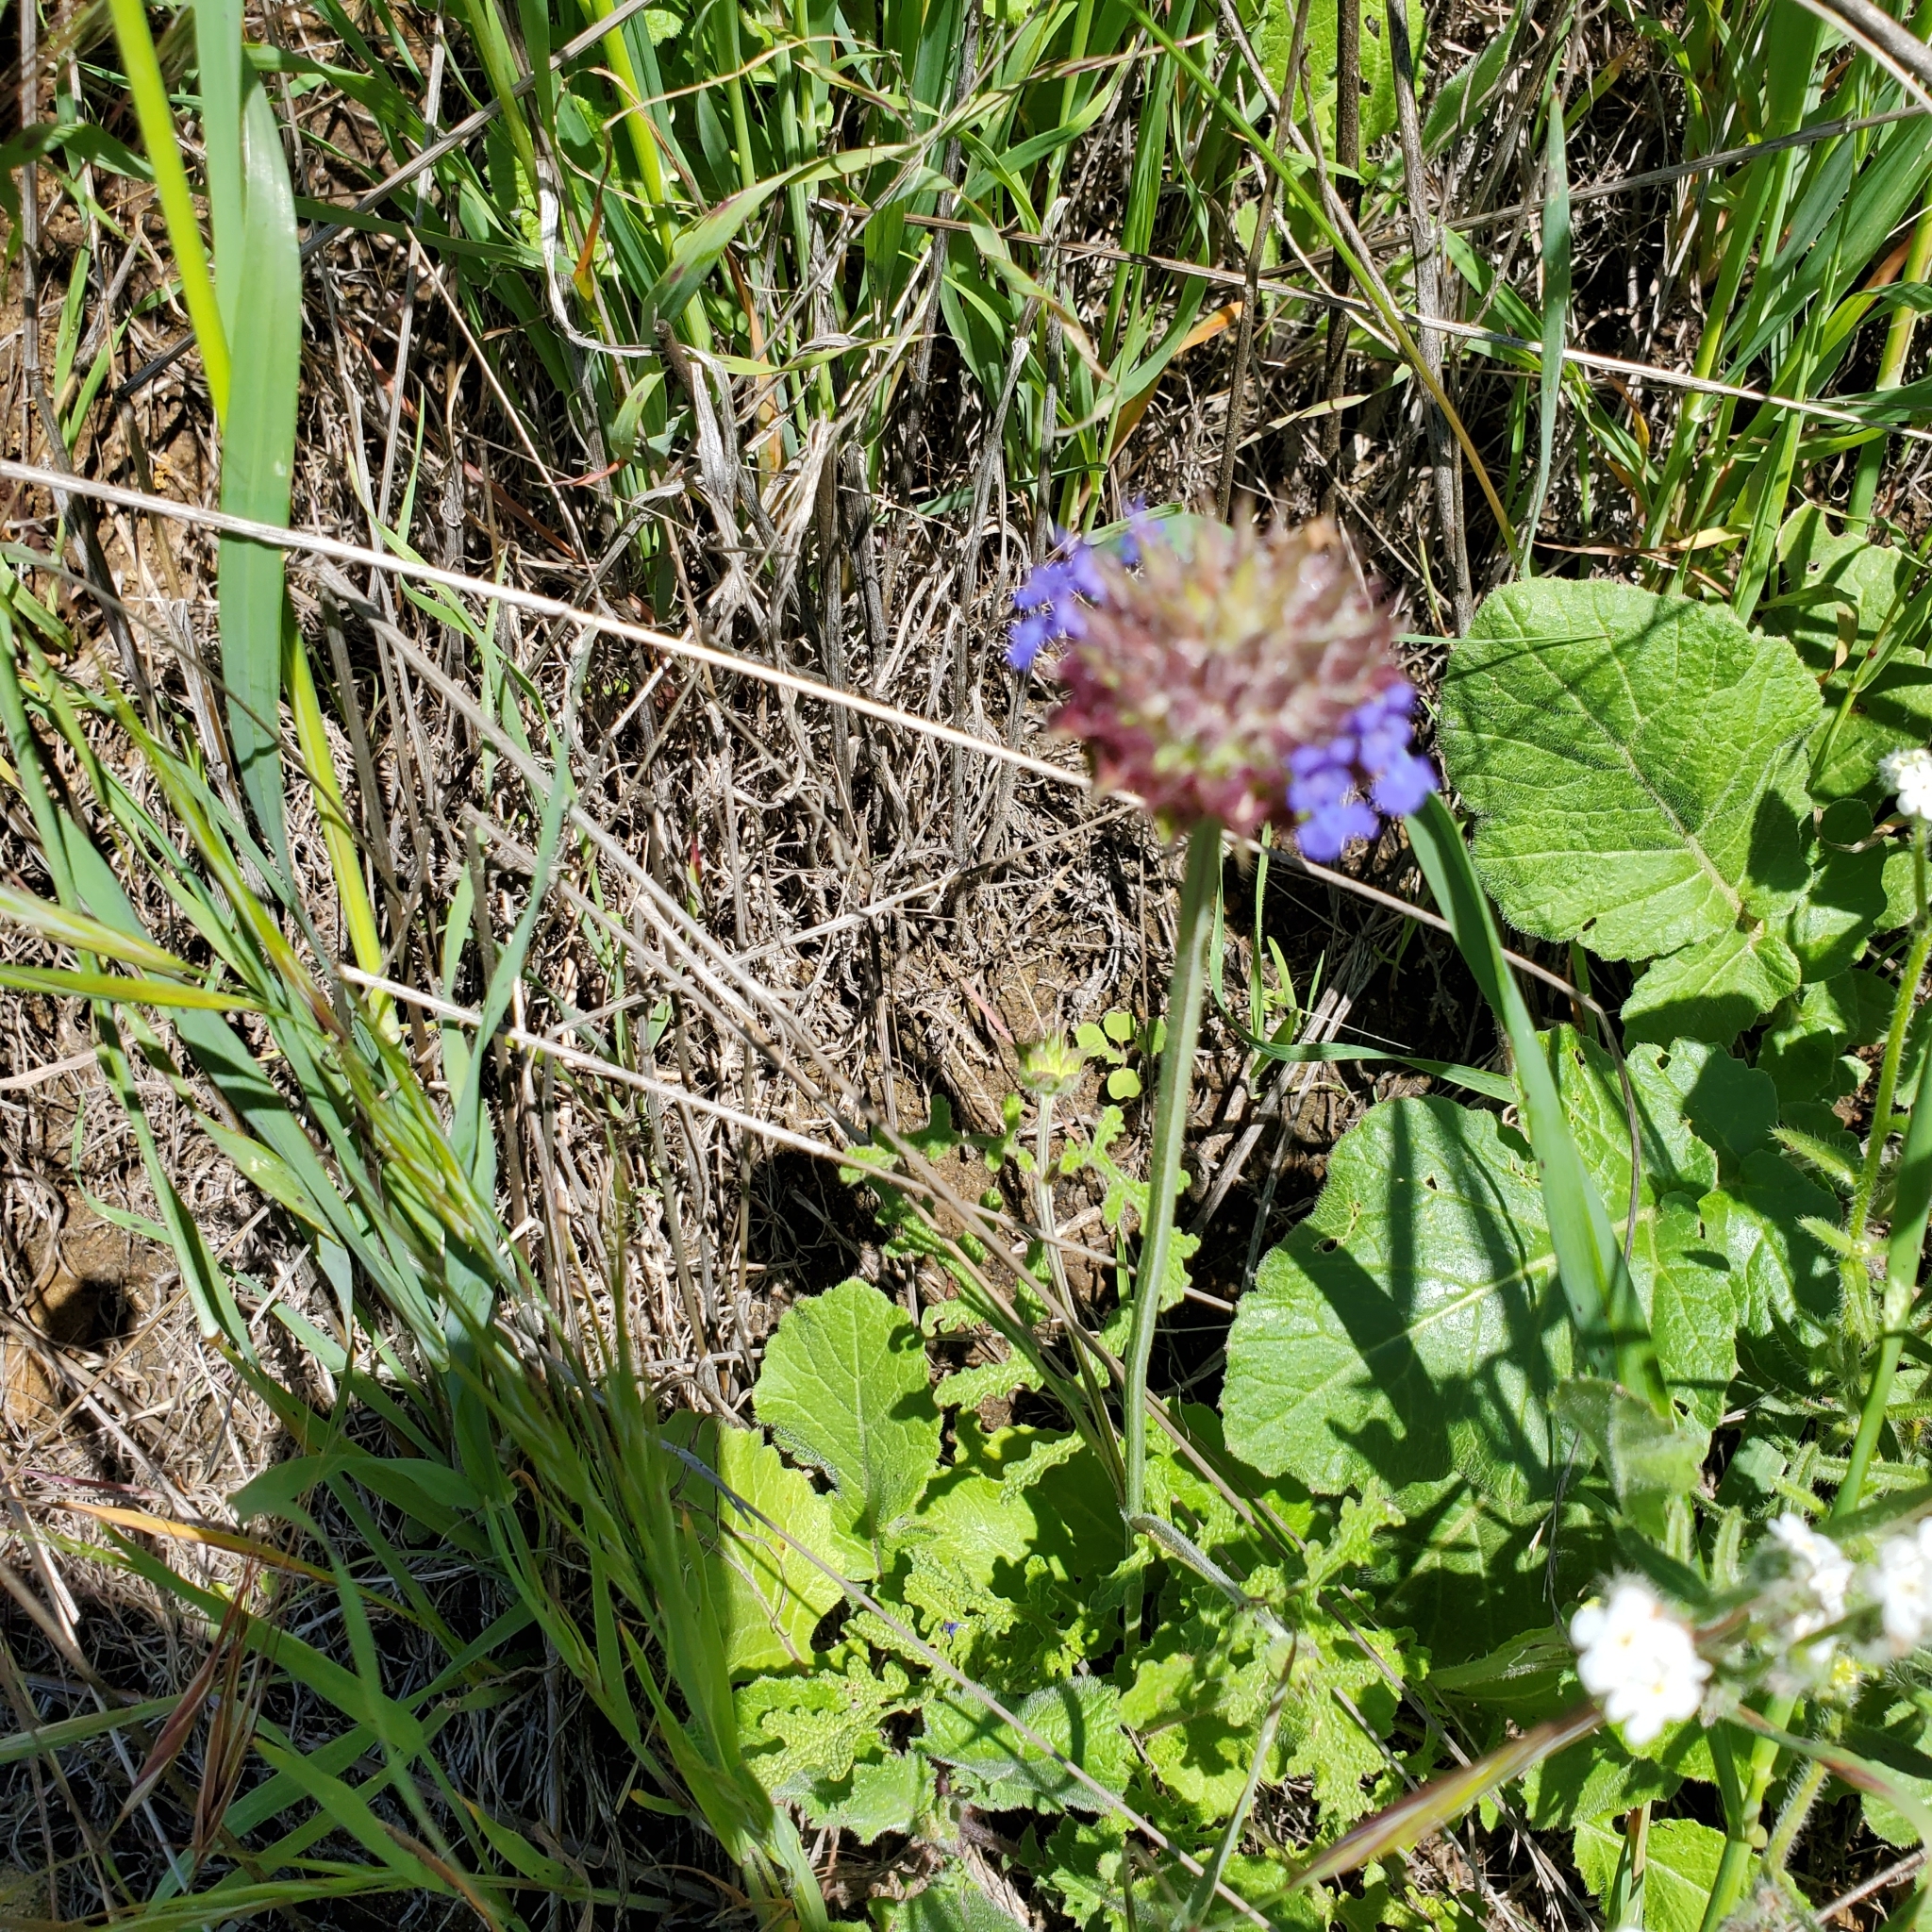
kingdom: Plantae
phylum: Tracheophyta
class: Magnoliopsida
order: Lamiales
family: Lamiaceae
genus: Salvia
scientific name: Salvia columbariae
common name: Chia
